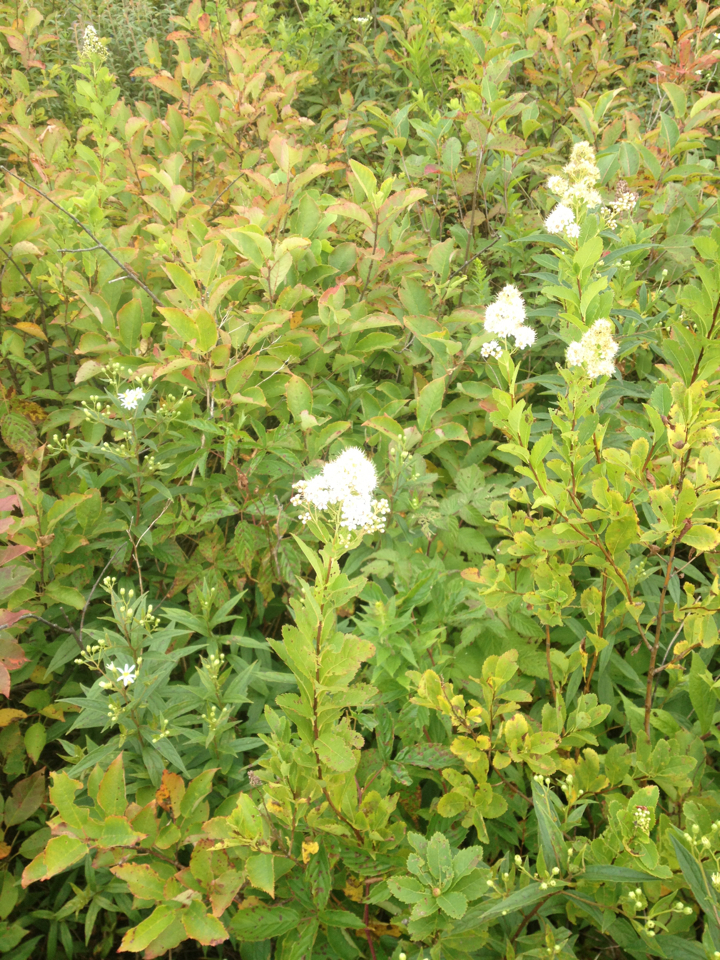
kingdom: Plantae
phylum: Tracheophyta
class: Magnoliopsida
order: Rosales
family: Rosaceae
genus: Spiraea
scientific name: Spiraea alba
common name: Pale bridewort
